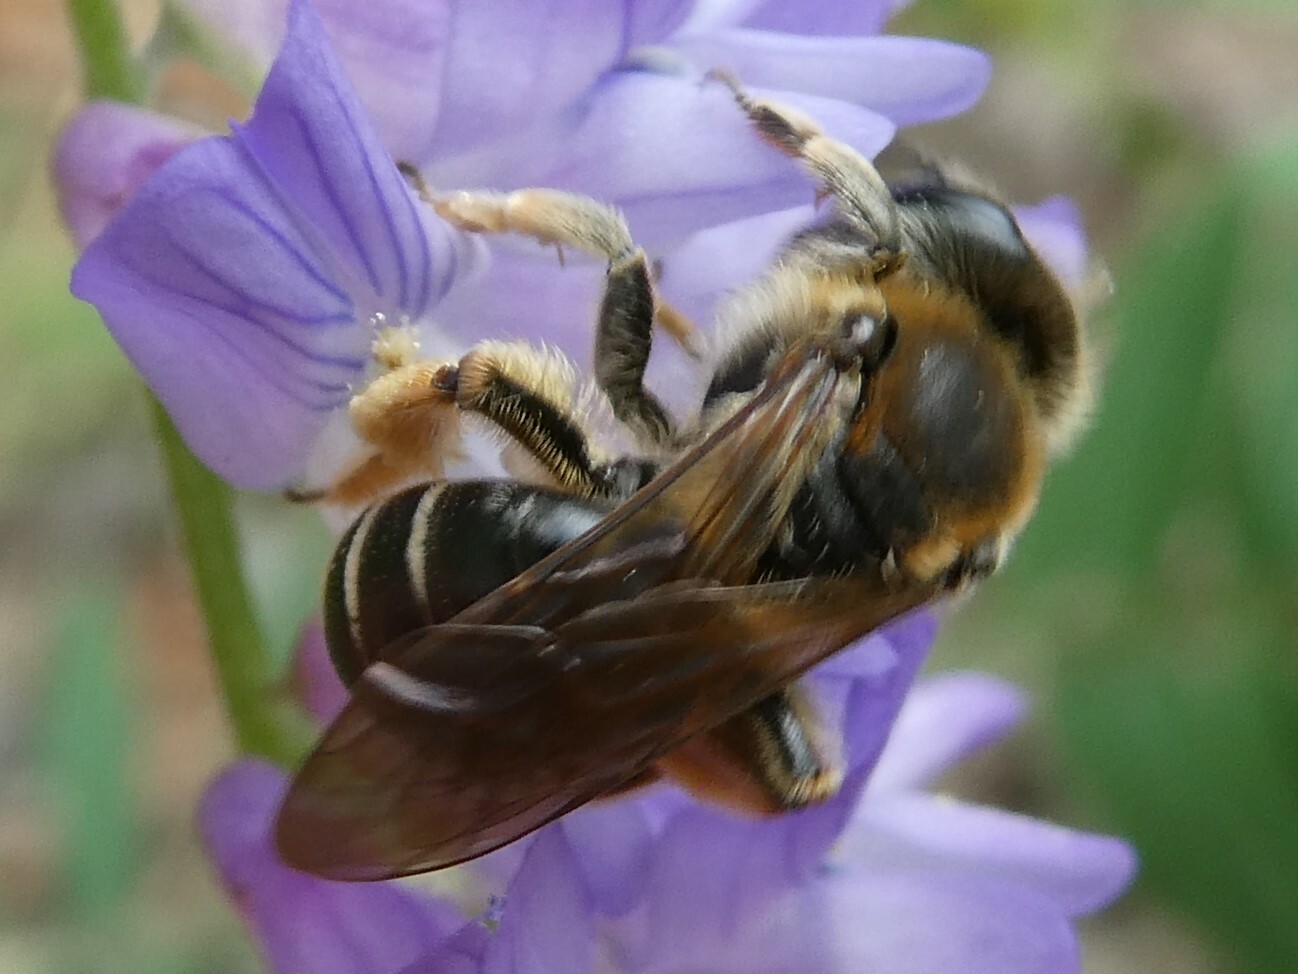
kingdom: Animalia
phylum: Arthropoda
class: Insecta
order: Hymenoptera
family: Andrenidae
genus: Andrena
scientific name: Andrena wilkella
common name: Wilke's mining bee
